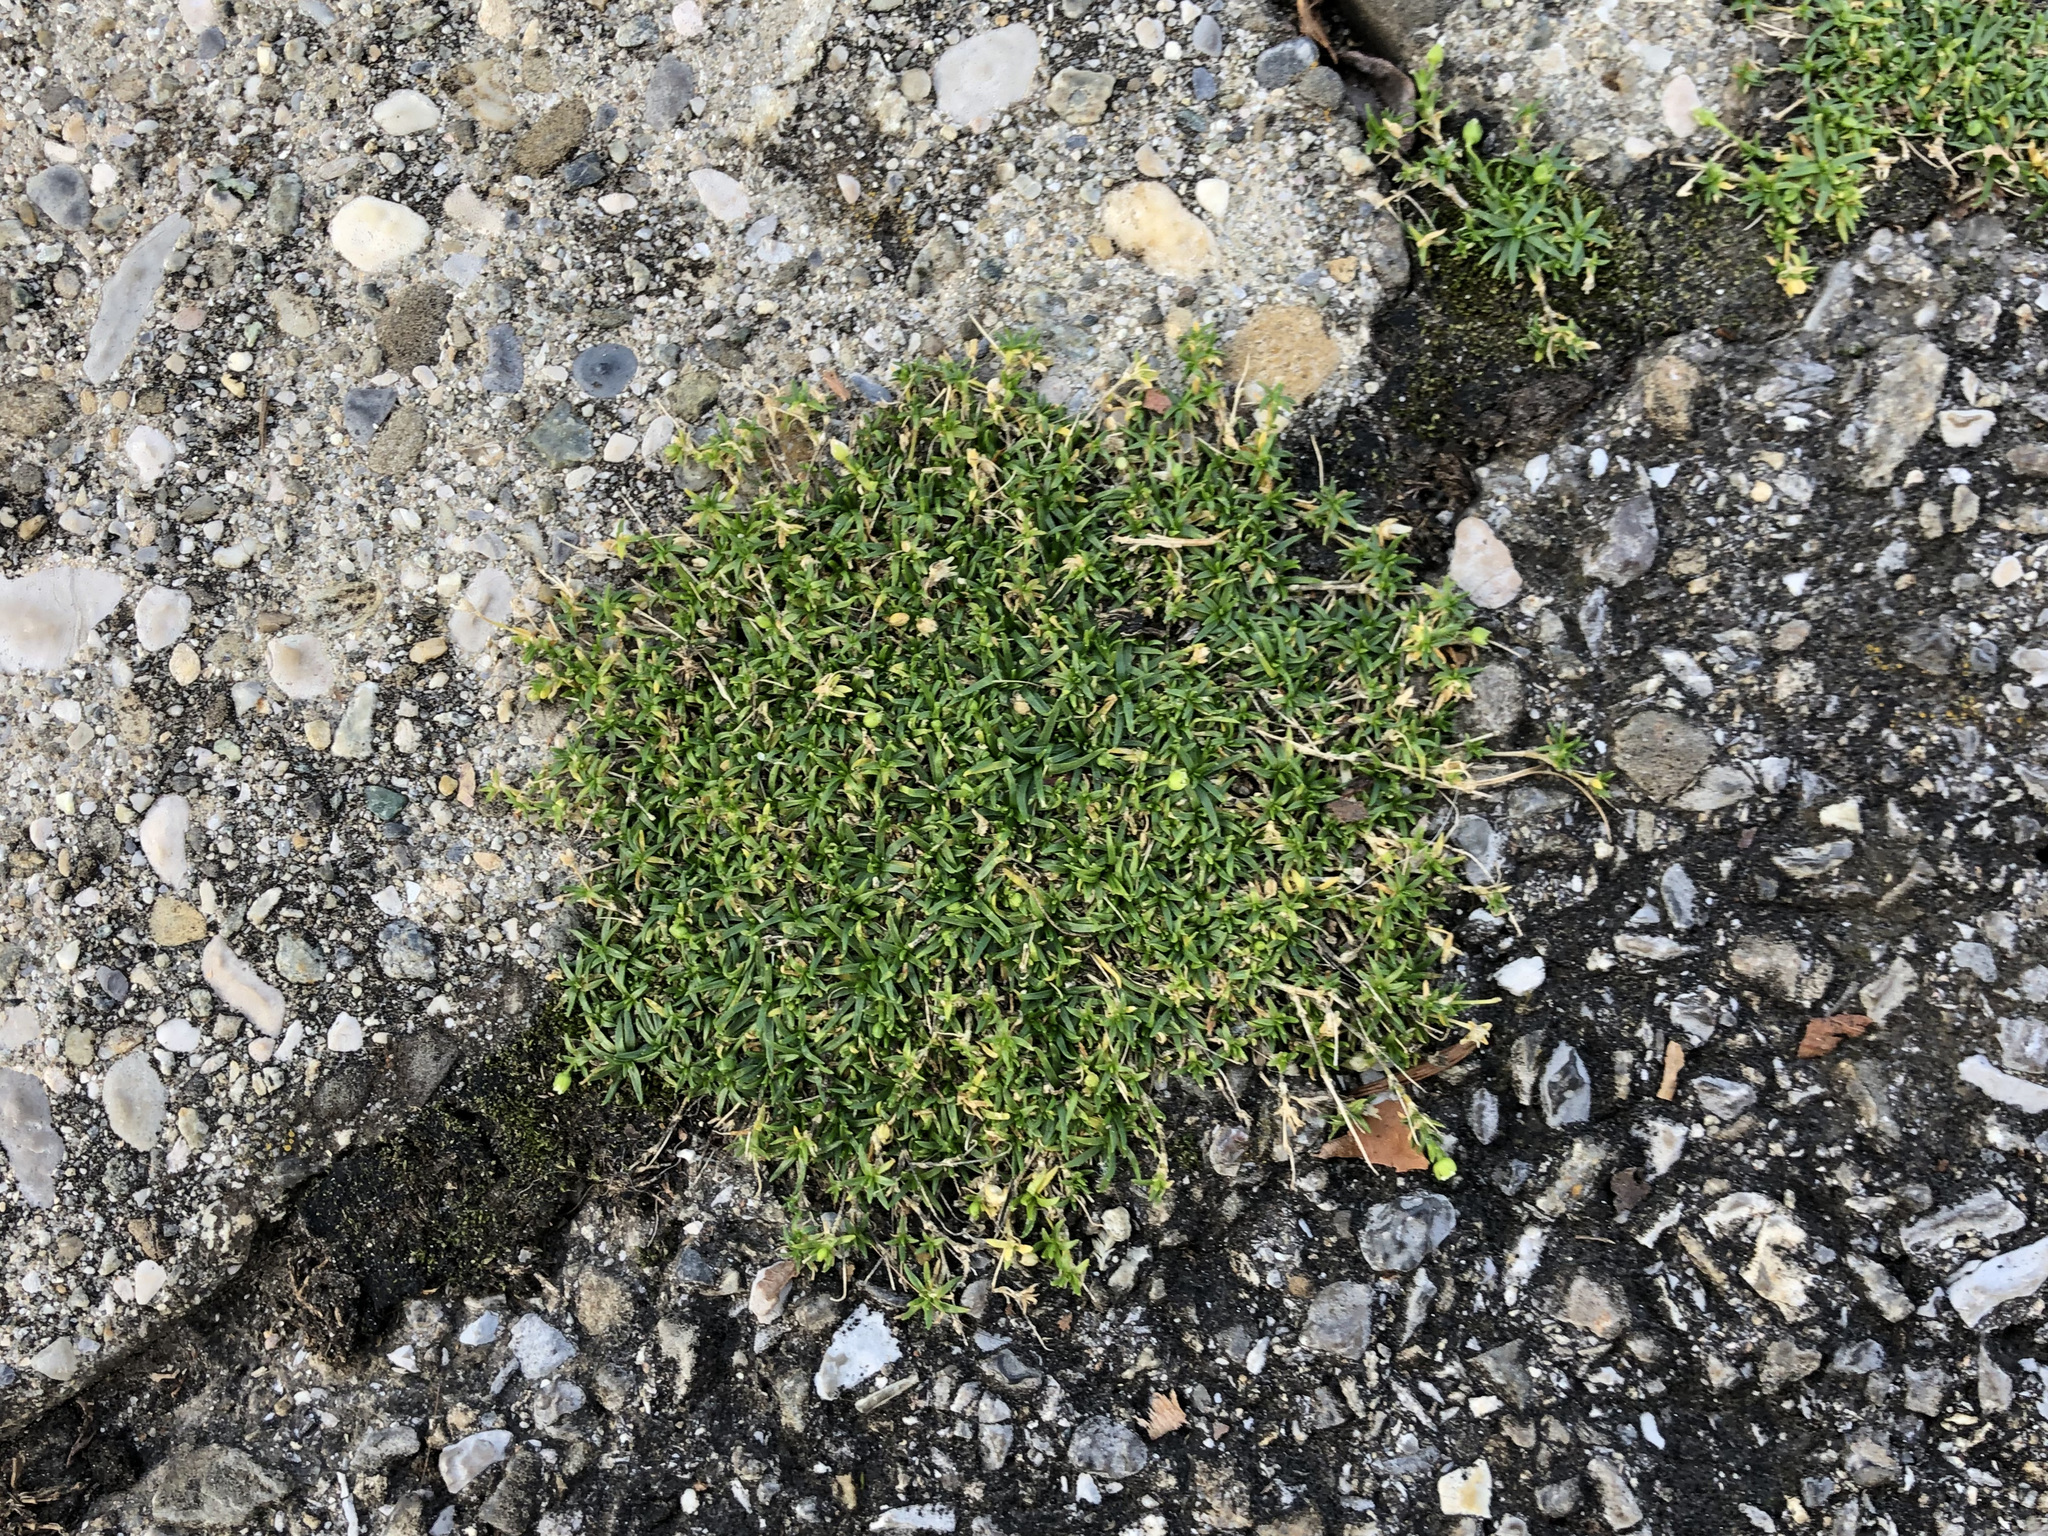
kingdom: Plantae
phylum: Tracheophyta
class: Magnoliopsida
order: Caryophyllales
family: Caryophyllaceae
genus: Sagina
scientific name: Sagina procumbens
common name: Procumbent pearlwort
